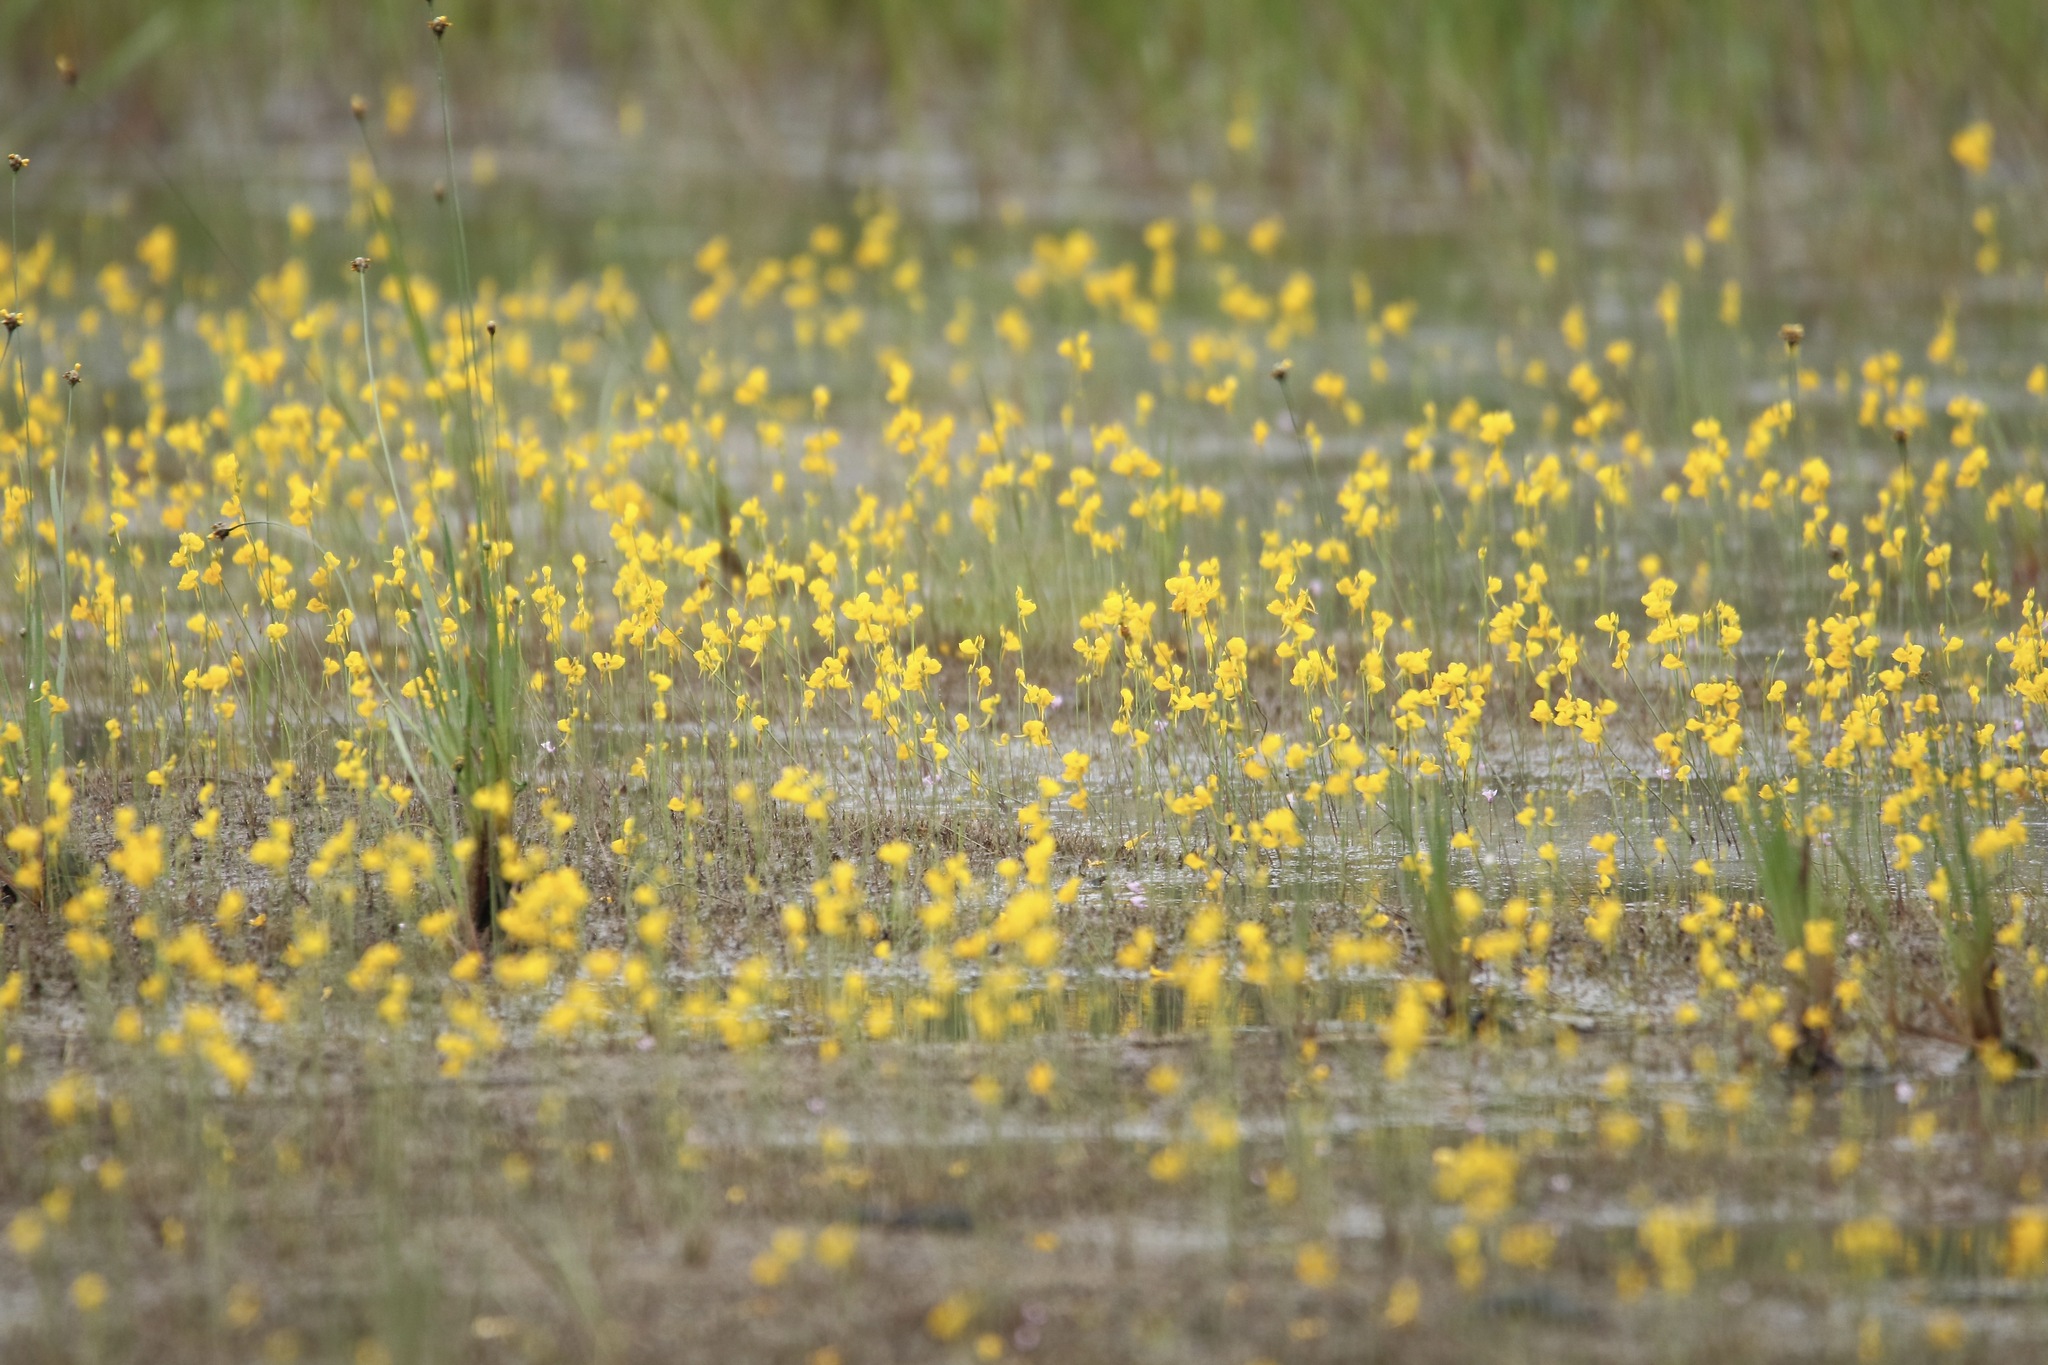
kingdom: Plantae
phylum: Tracheophyta
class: Magnoliopsida
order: Lamiales
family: Lentibulariaceae
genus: Utricularia
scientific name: Utricularia cornuta
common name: Horned bladderwort
